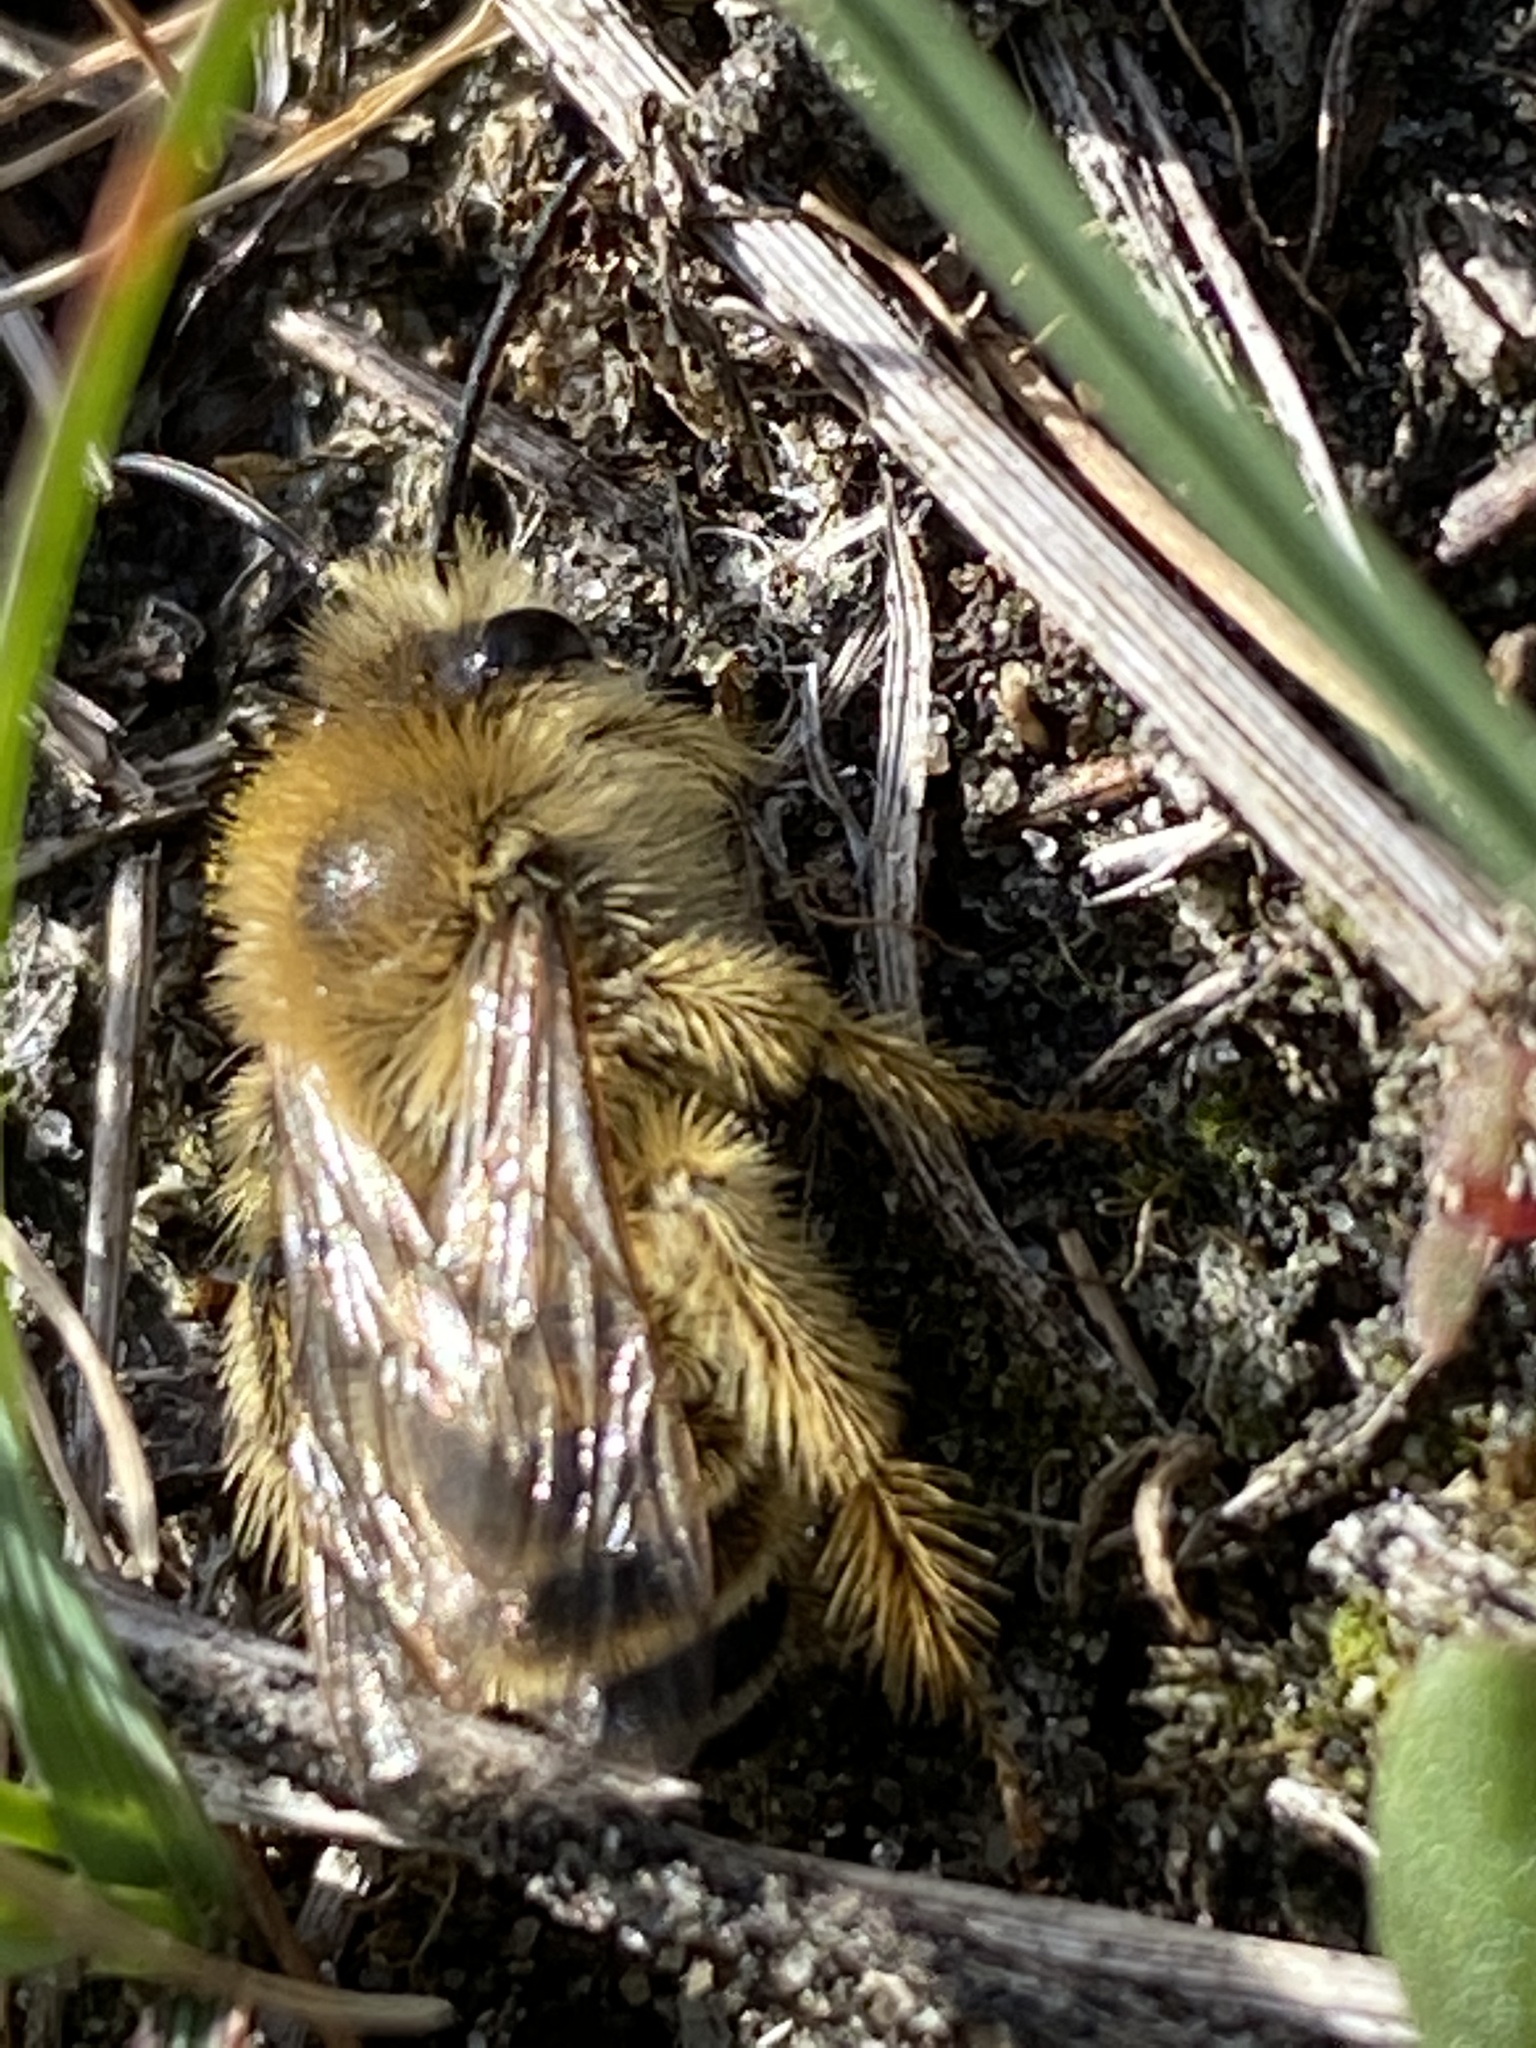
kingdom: Animalia
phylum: Arthropoda
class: Insecta
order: Hymenoptera
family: Melittidae
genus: Dasypoda
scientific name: Dasypoda hirtipes
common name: Pantaloon bee
